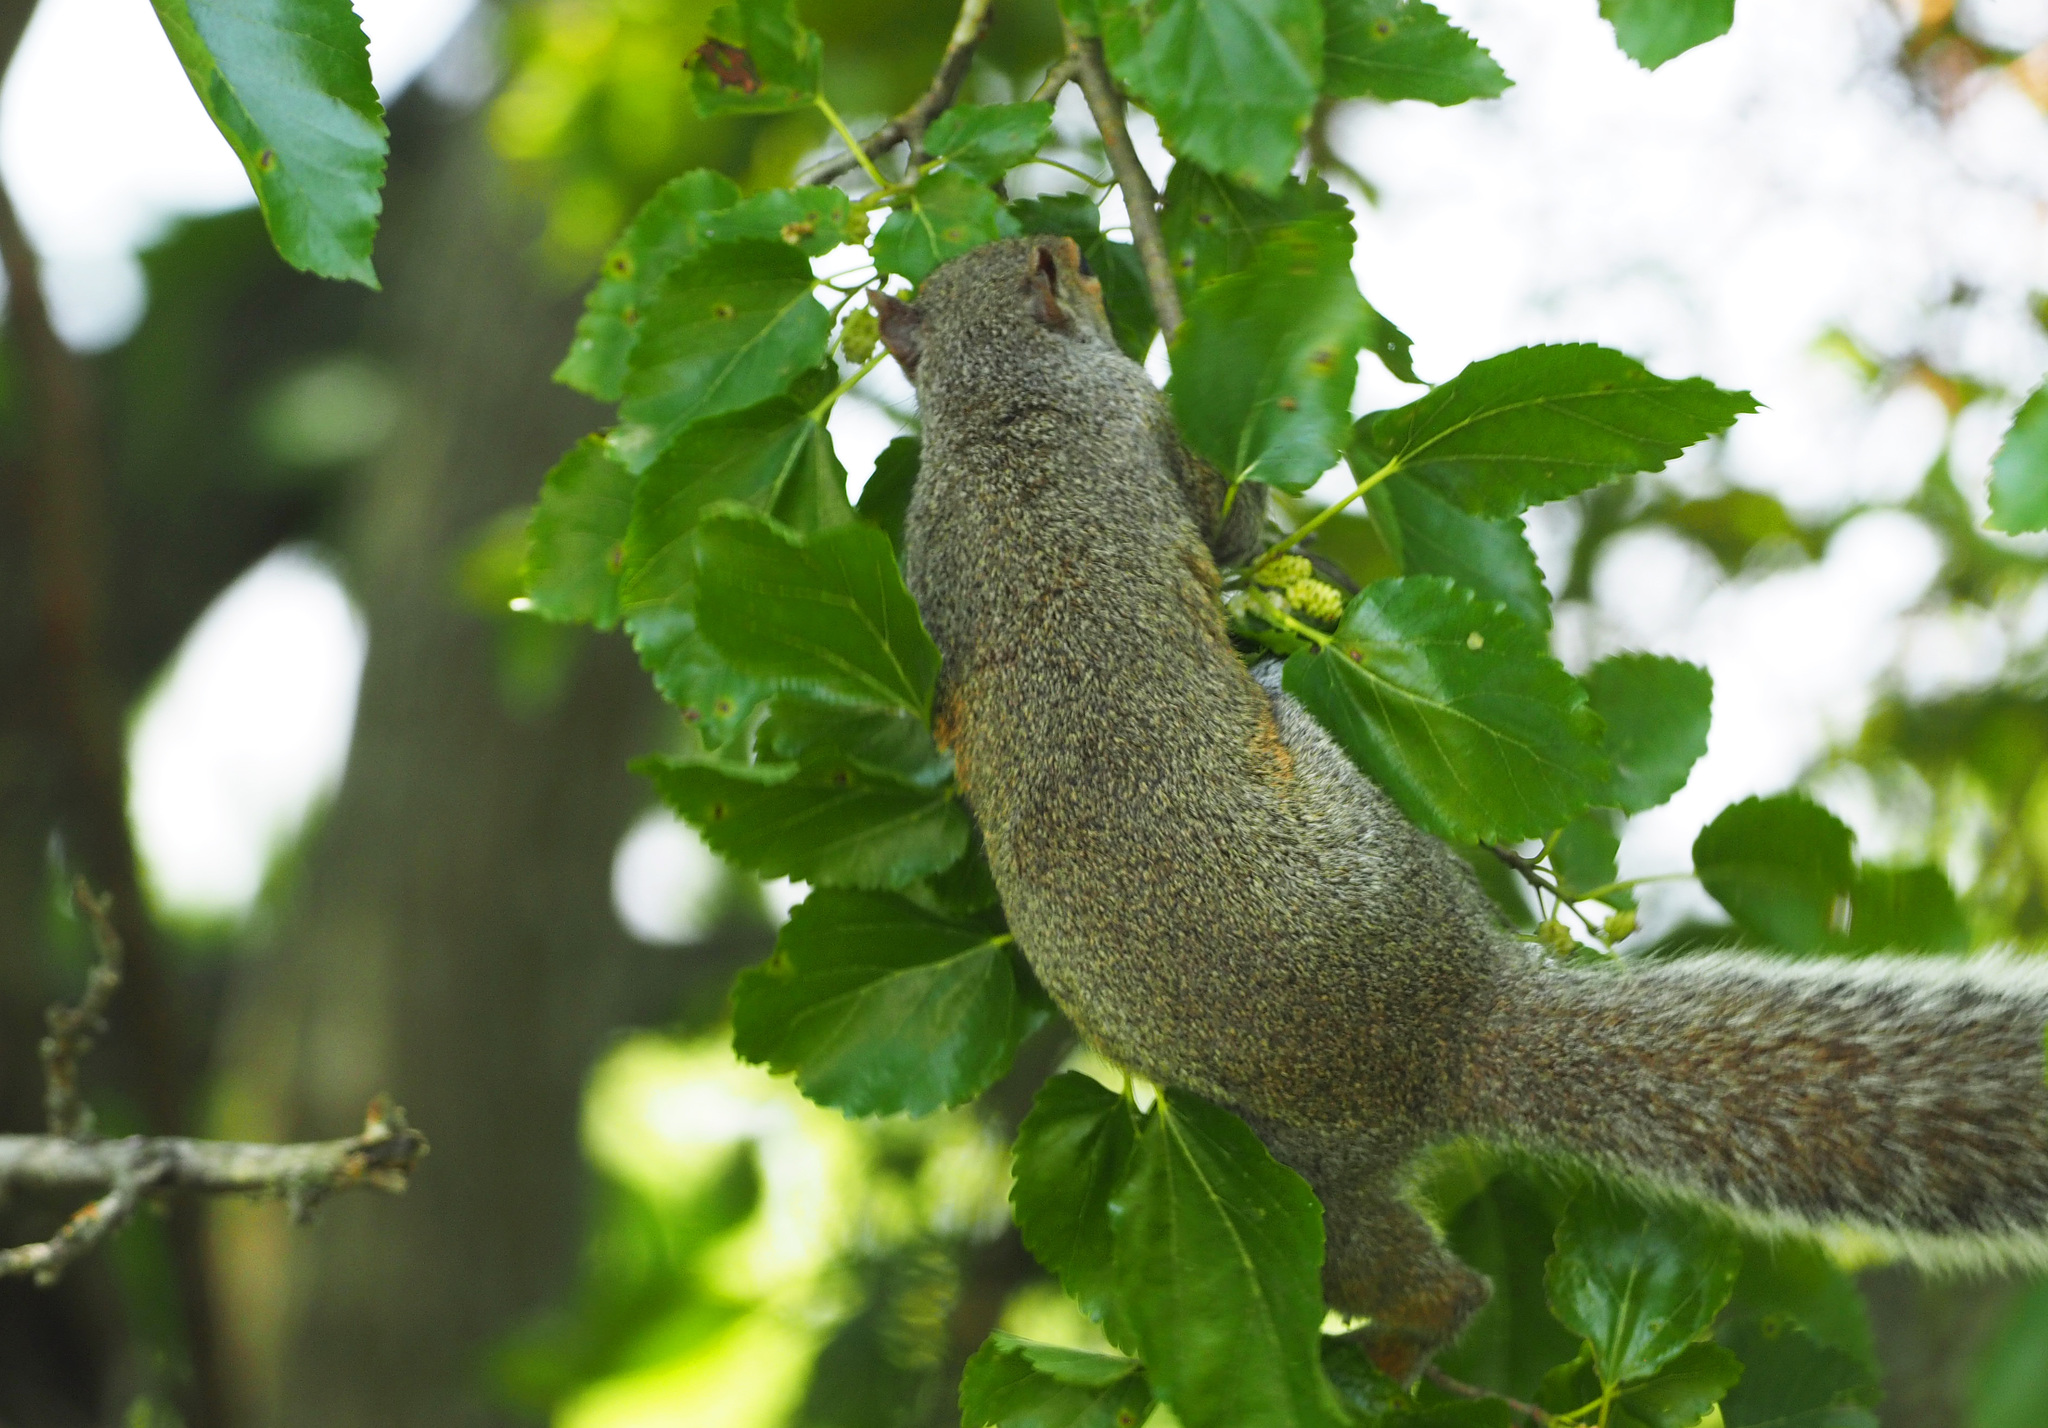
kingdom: Animalia
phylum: Chordata
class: Mammalia
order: Rodentia
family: Sciuridae
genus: Sciurus
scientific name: Sciurus carolinensis
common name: Eastern gray squirrel
